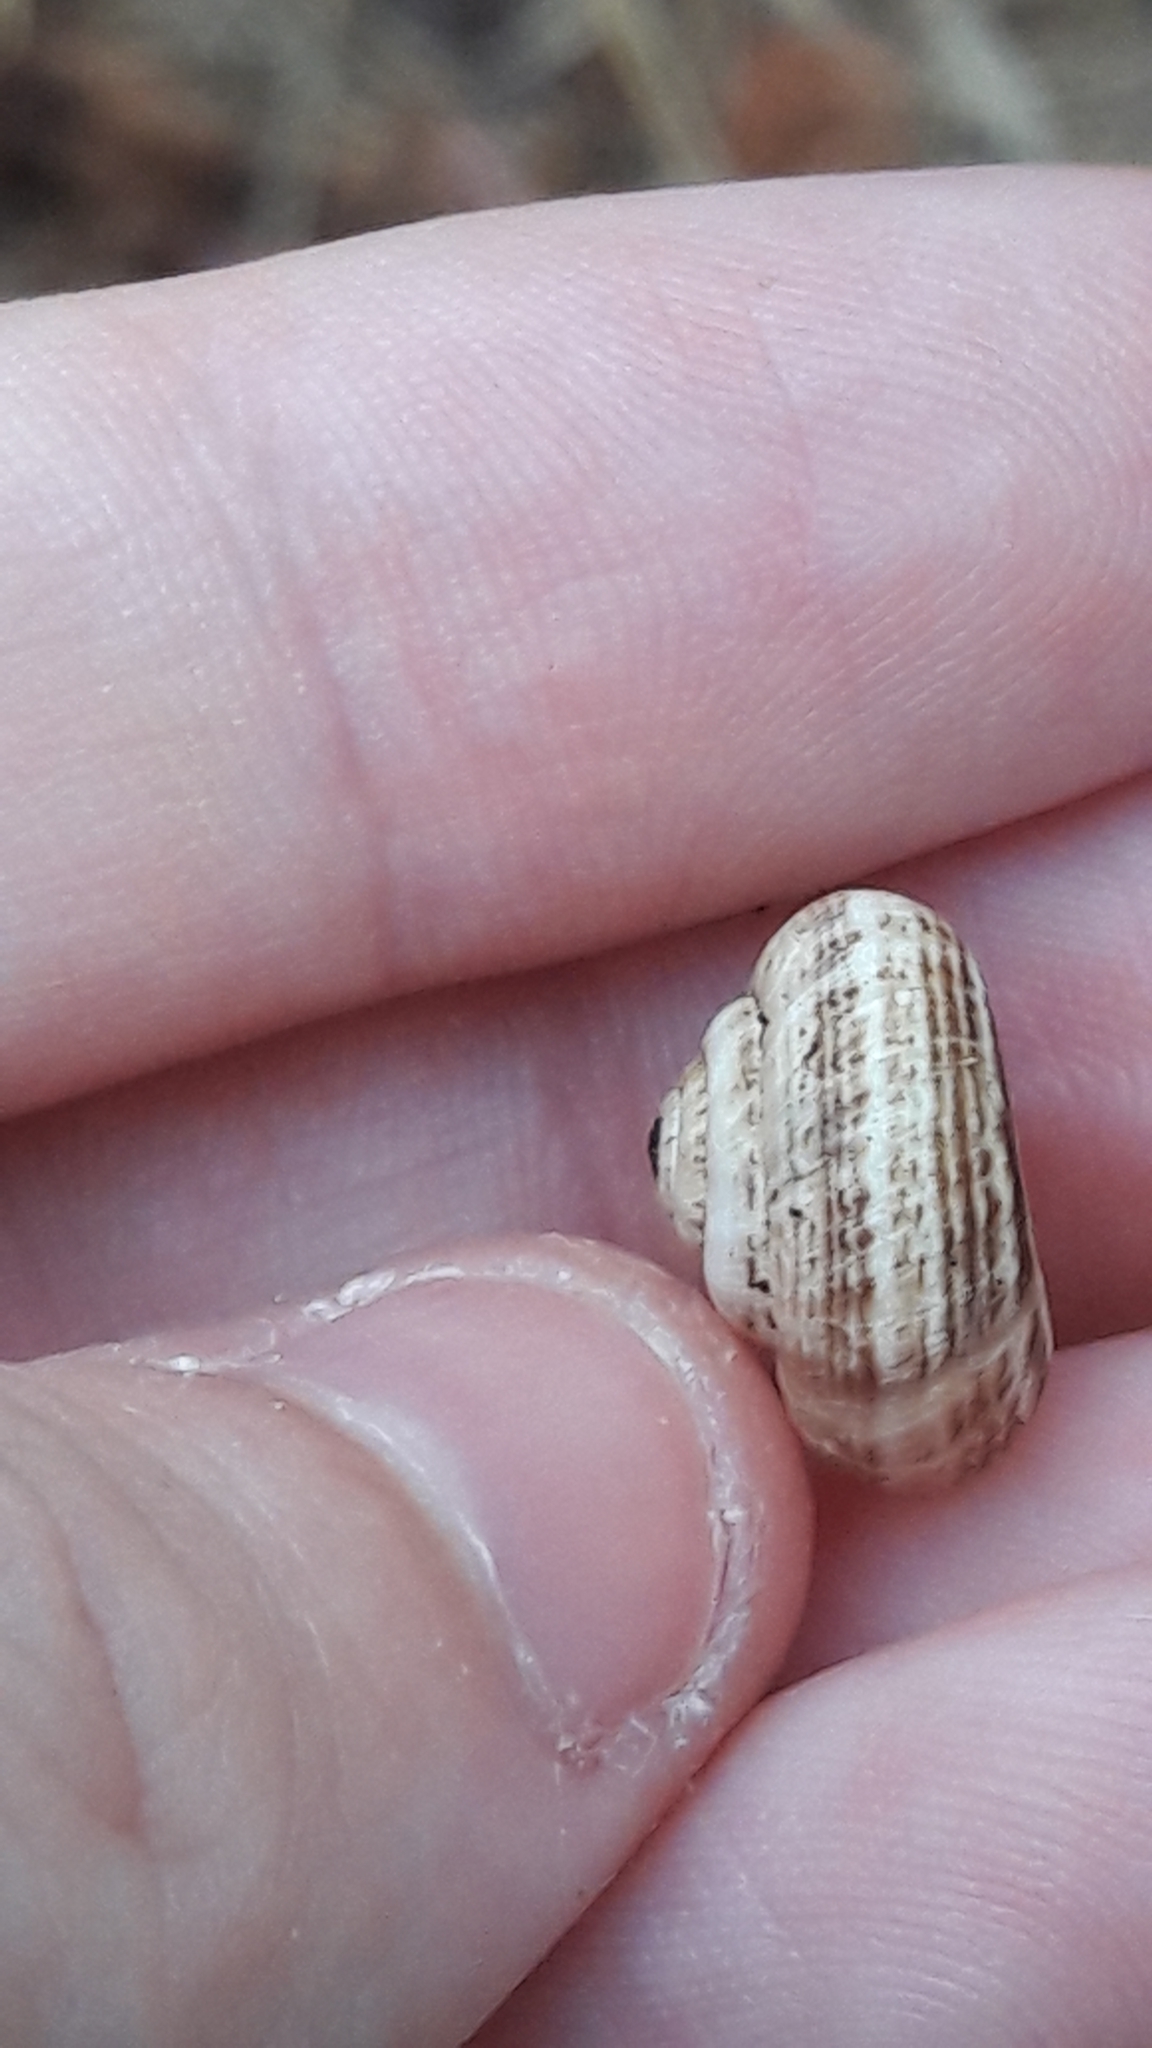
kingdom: Animalia
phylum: Mollusca
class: Gastropoda
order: Stylommatophora
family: Geomitridae
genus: Xeropicta
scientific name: Xeropicta krynickii
